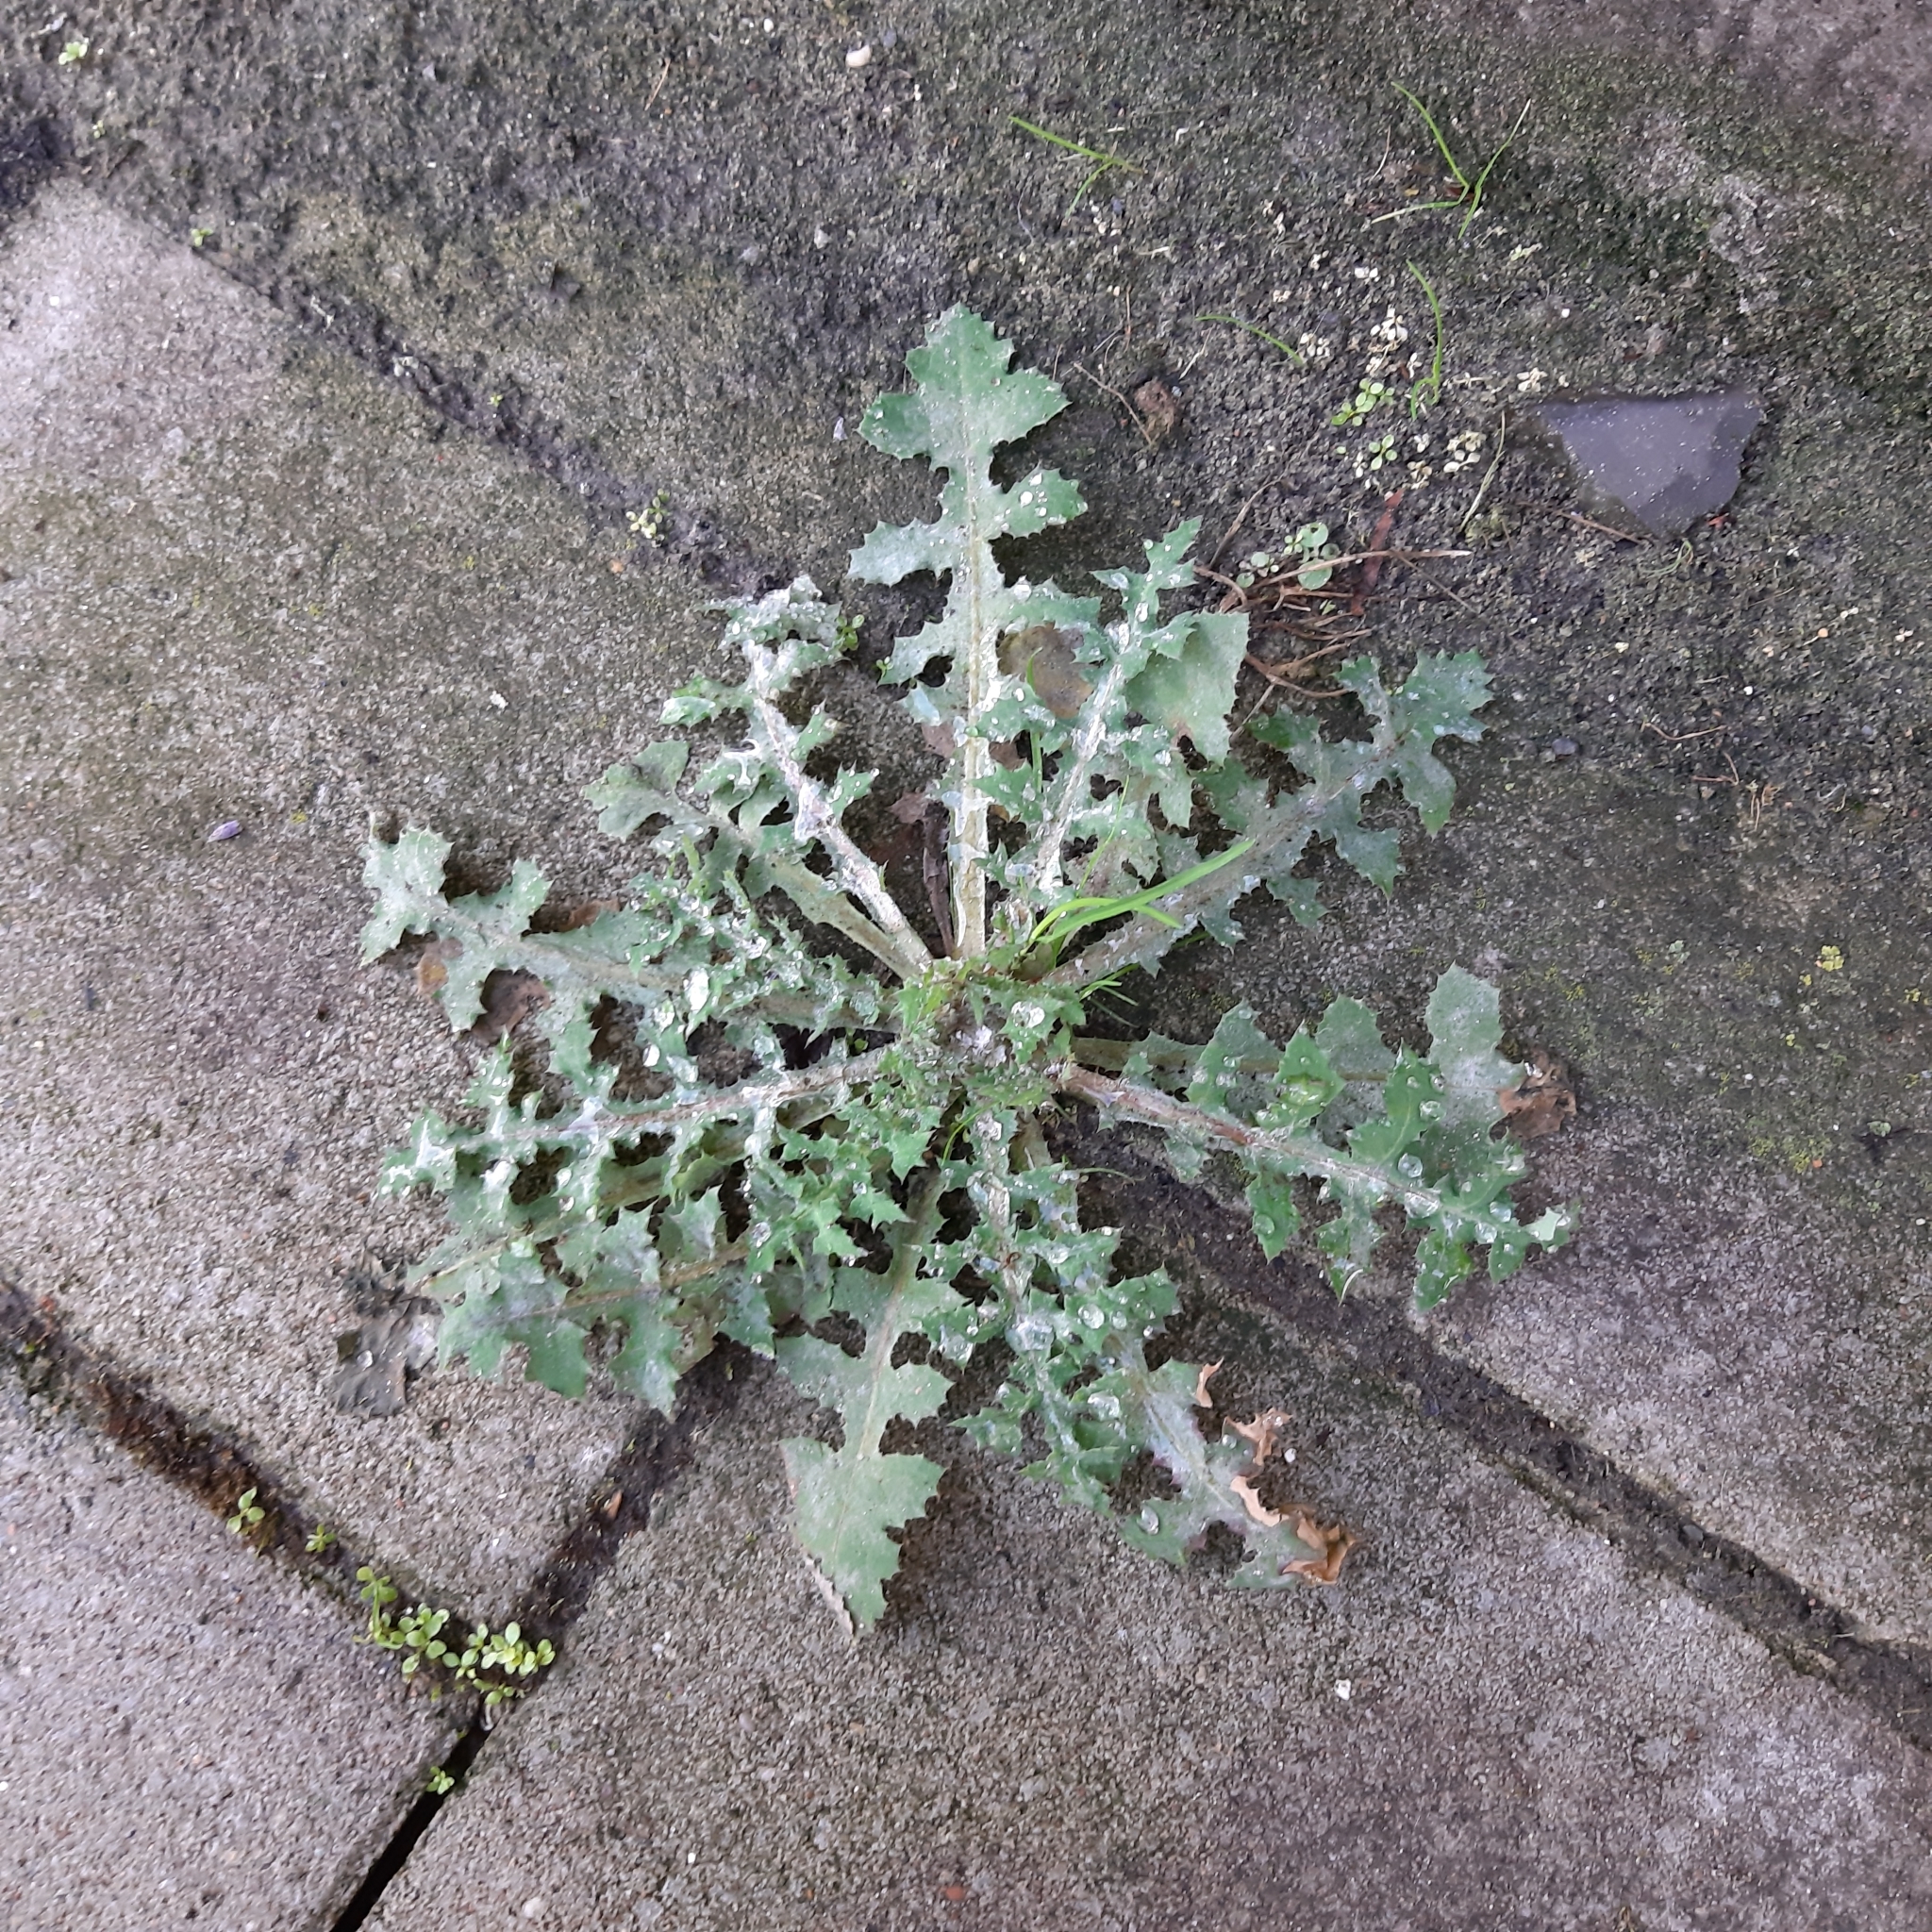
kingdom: Plantae
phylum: Tracheophyta
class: Magnoliopsida
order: Asterales
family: Asteraceae
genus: Sonchus
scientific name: Sonchus oleraceus
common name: Common sowthistle
